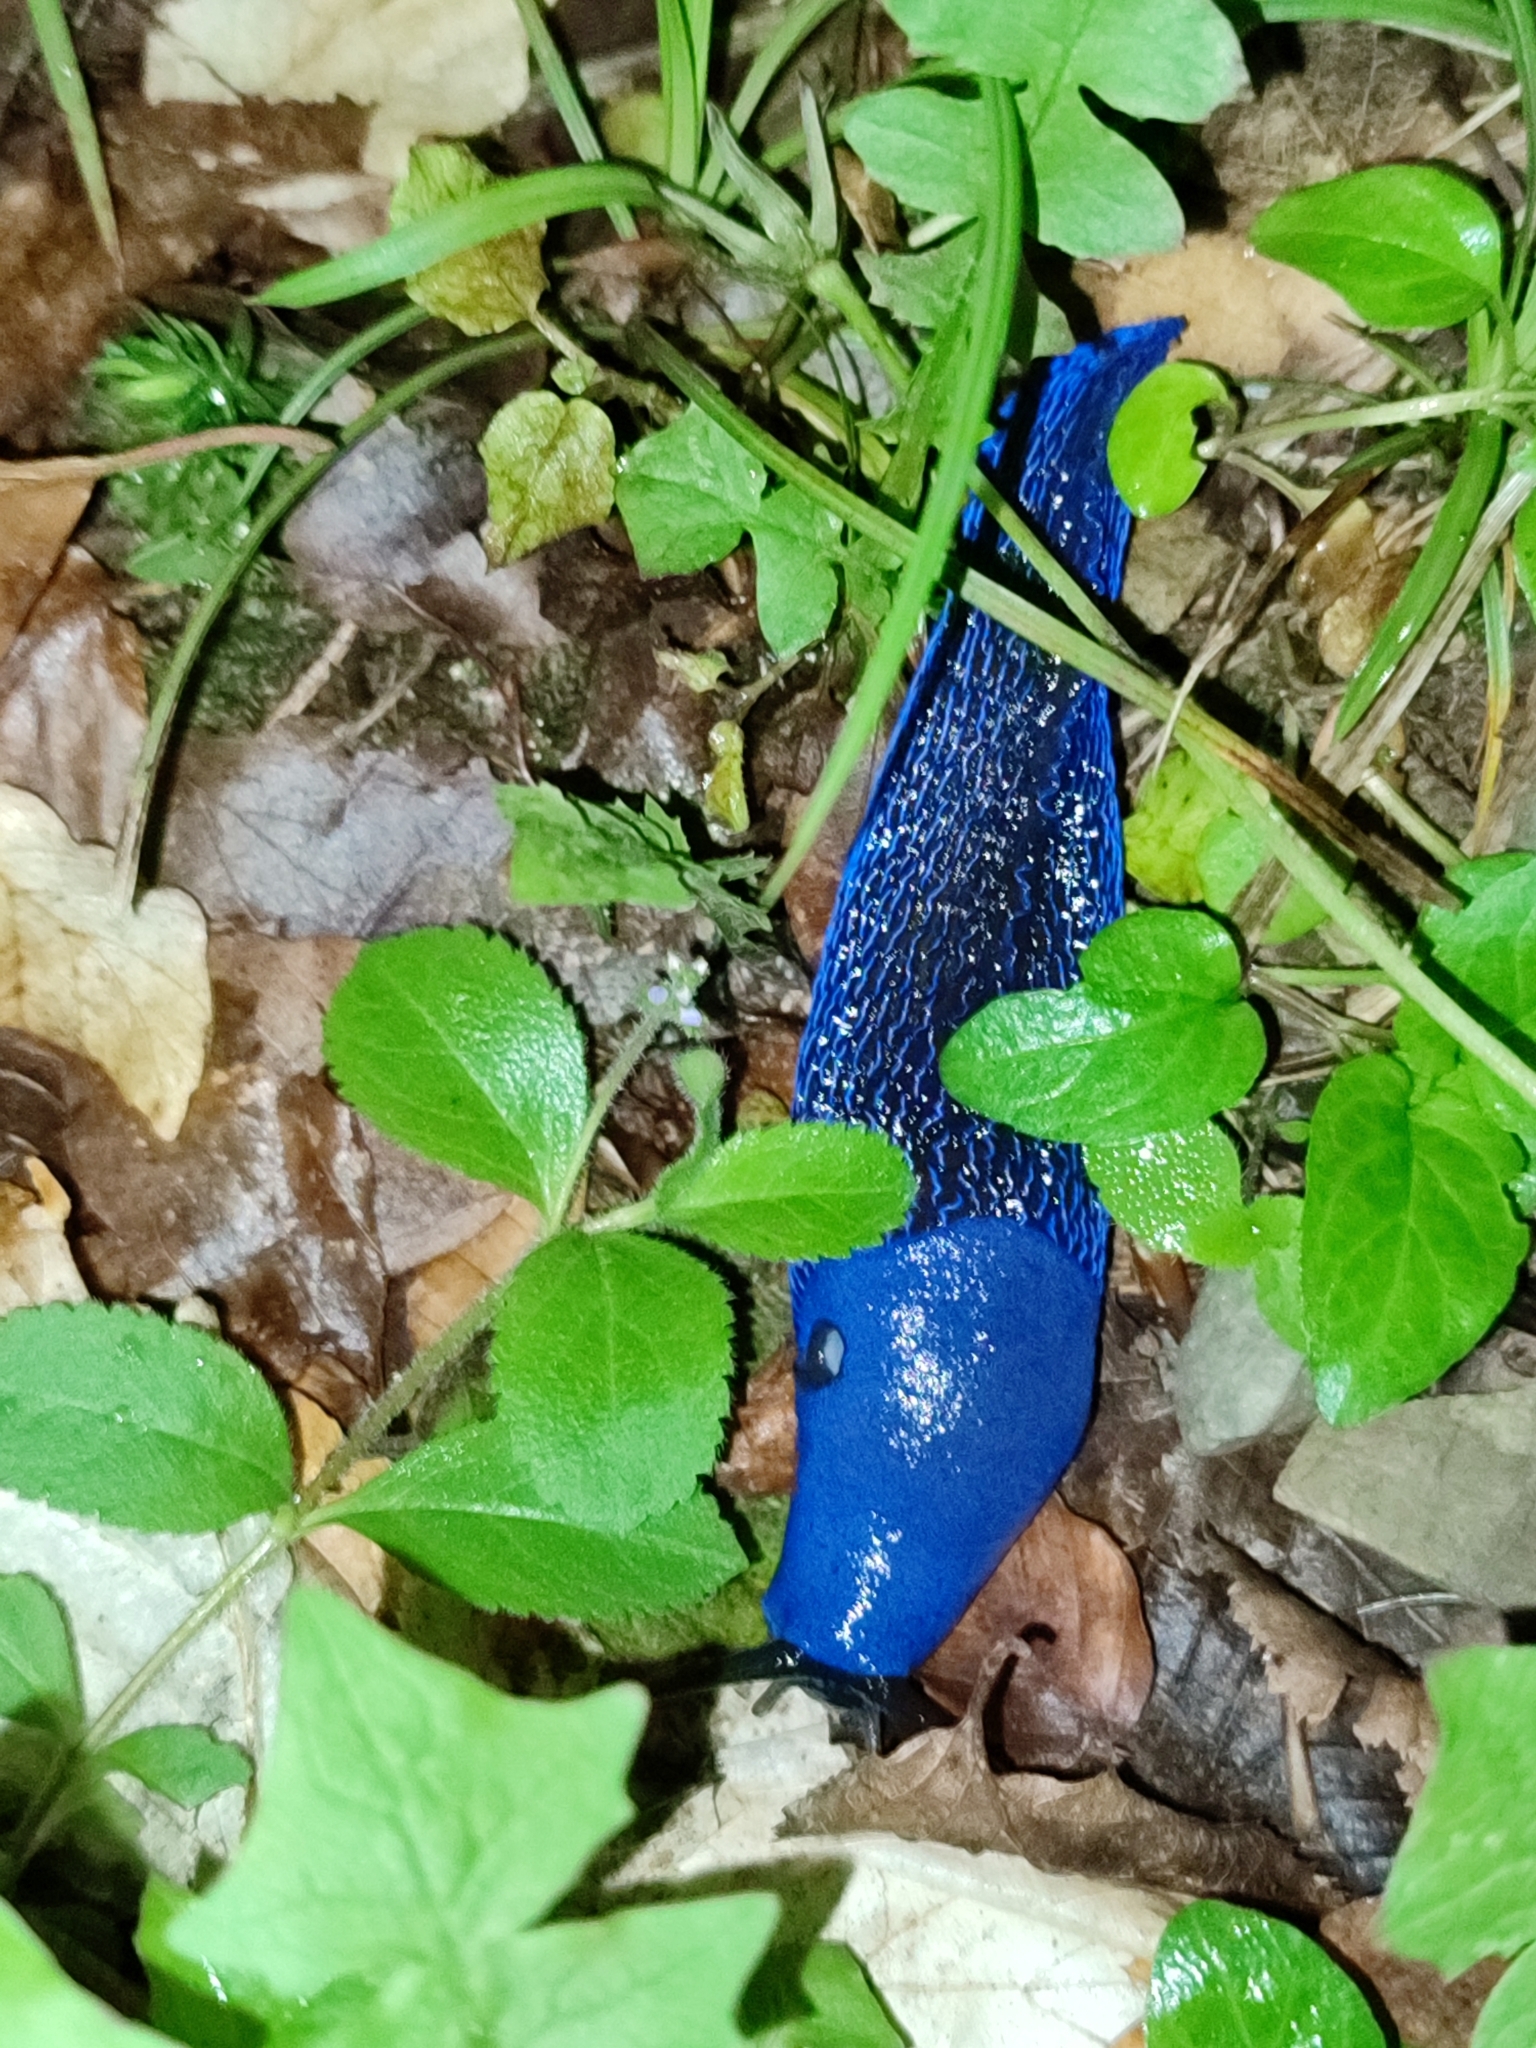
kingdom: Animalia
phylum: Mollusca
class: Gastropoda
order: Stylommatophora
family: Limacidae
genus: Bielzia
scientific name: Bielzia coerulans
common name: Carpathian blue slug
